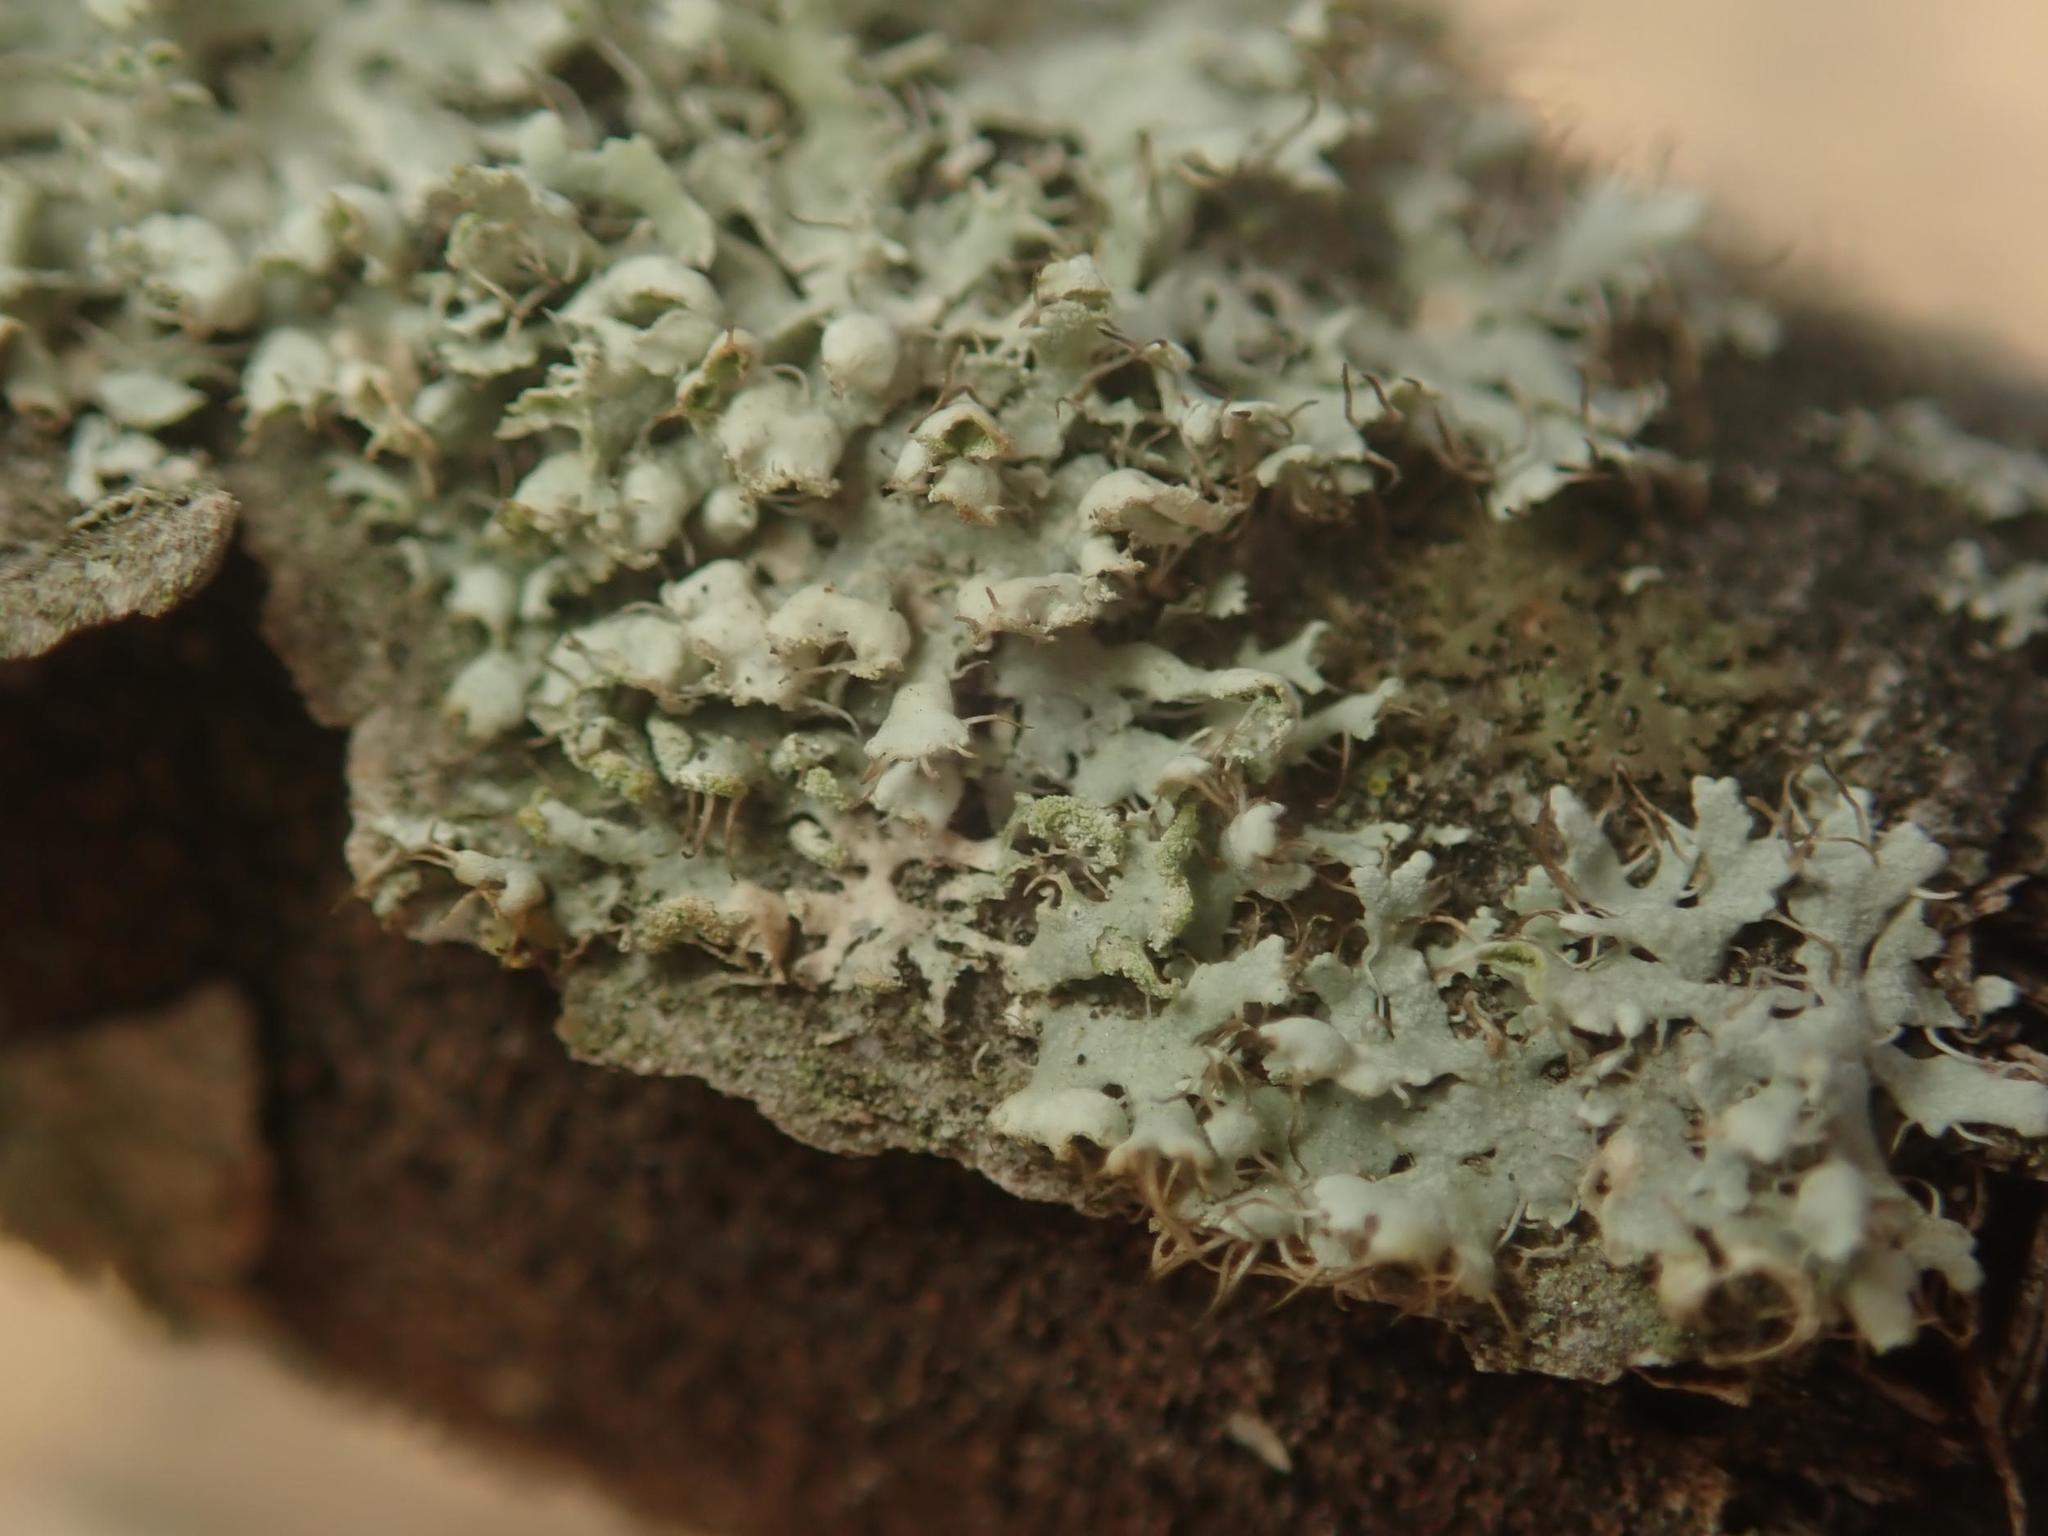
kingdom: Fungi
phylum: Ascomycota
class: Lecanoromycetes
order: Caliciales
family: Physciaceae
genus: Physcia
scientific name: Physcia adscendens
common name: Hooded rosette lichen
